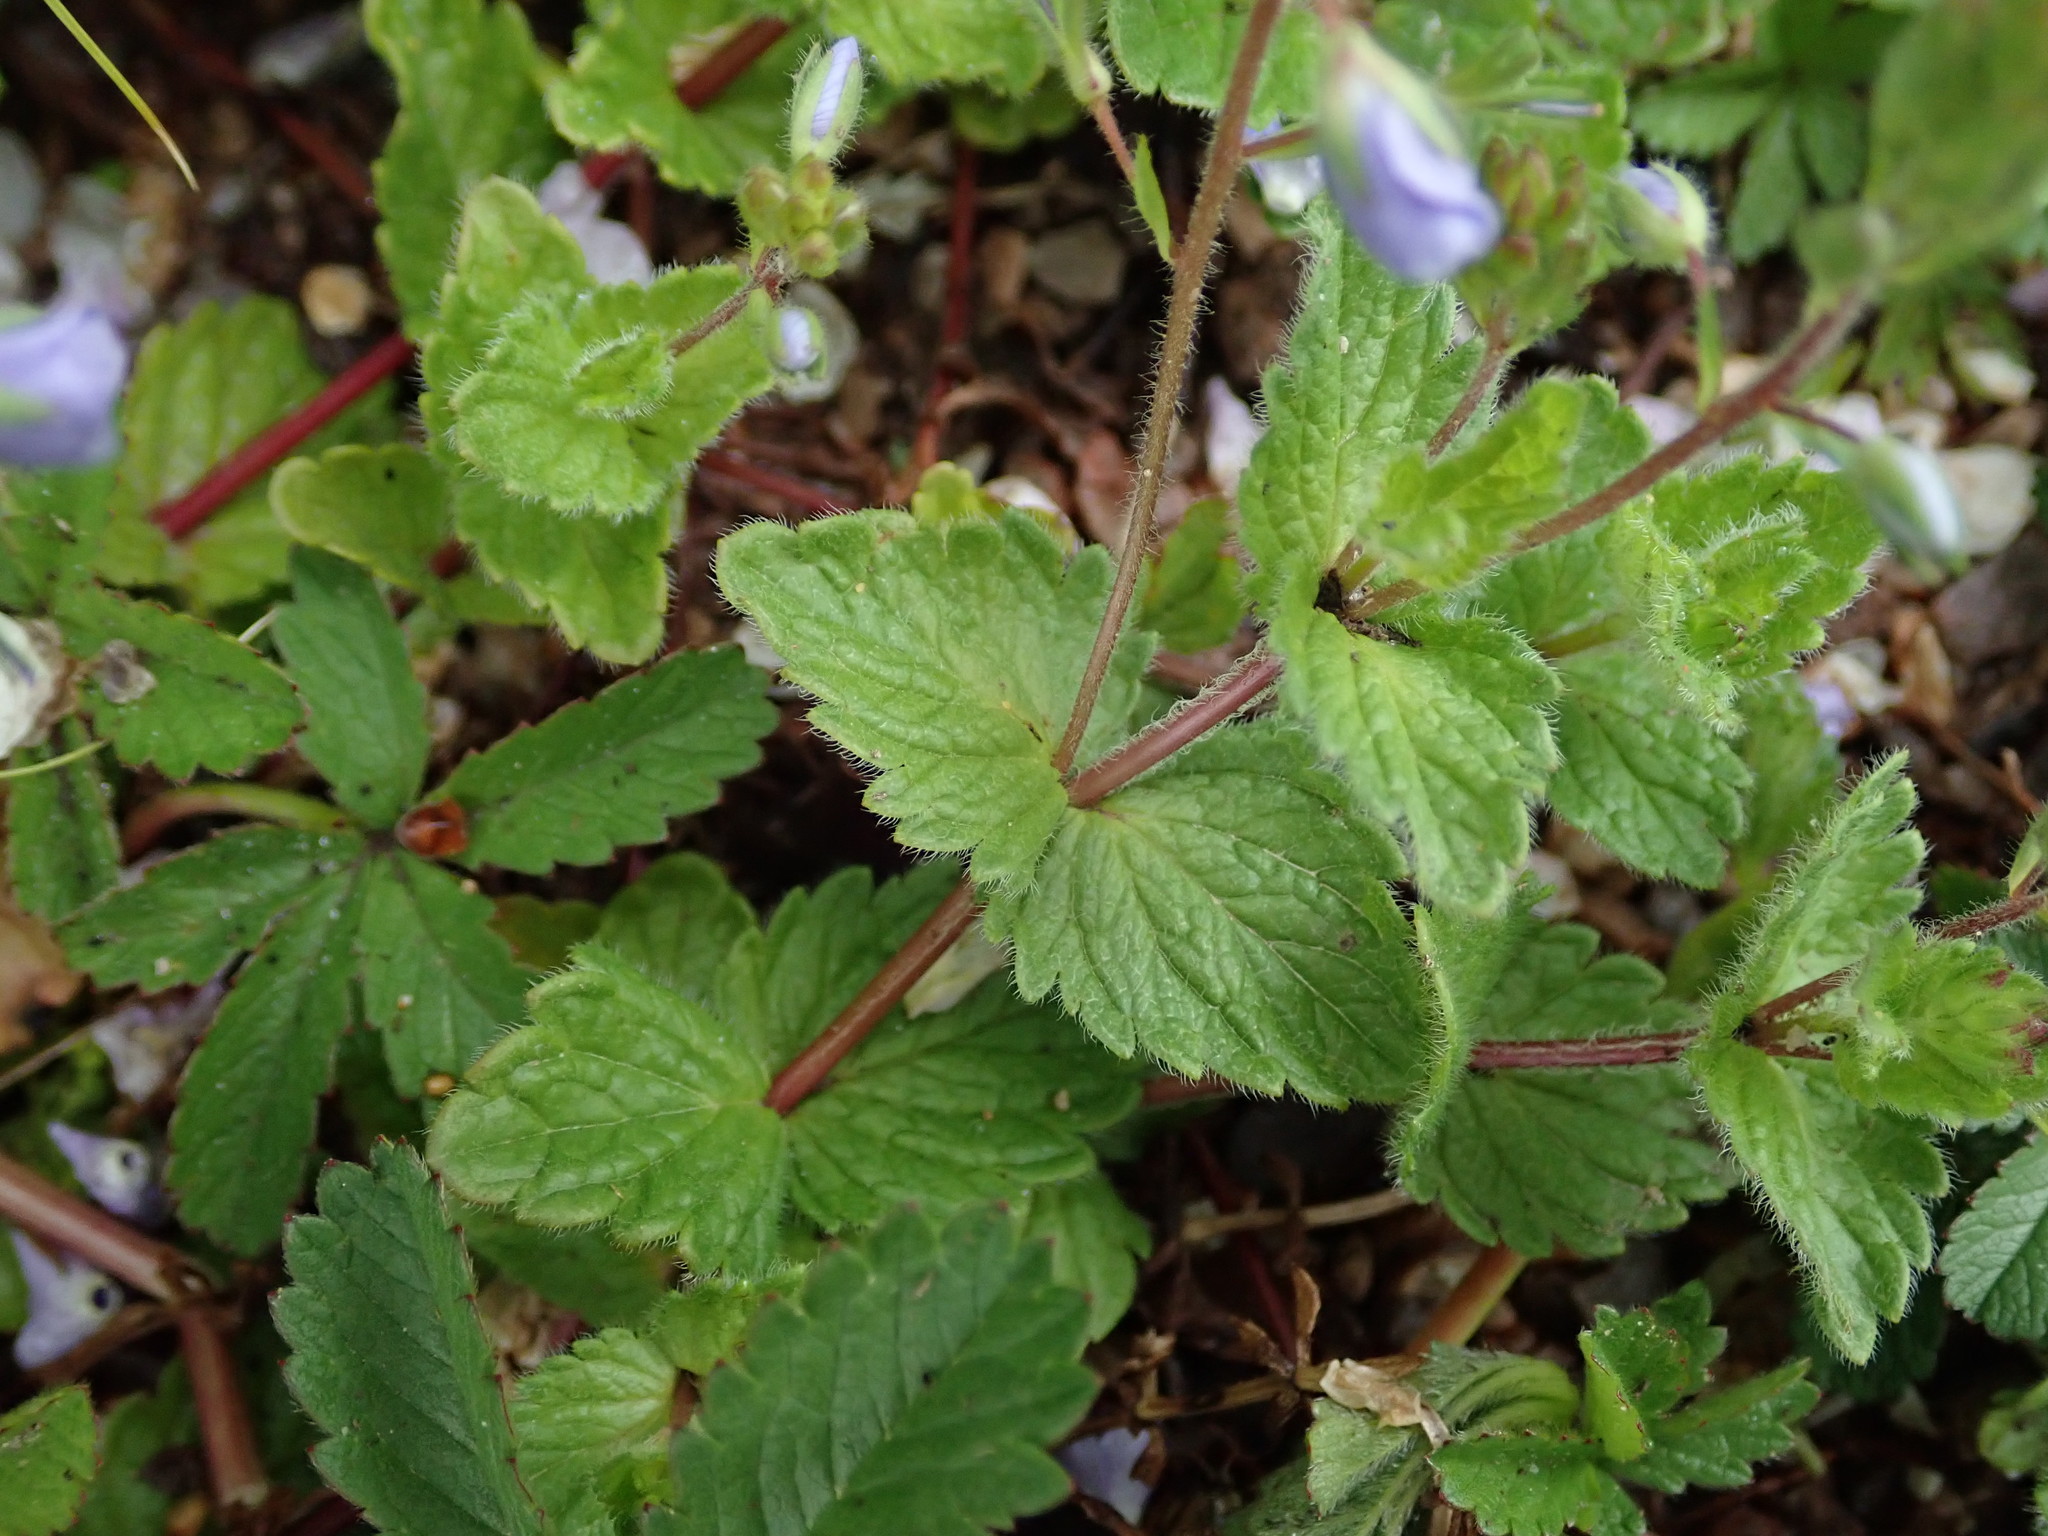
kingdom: Plantae
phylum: Tracheophyta
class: Magnoliopsida
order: Lamiales
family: Plantaginaceae
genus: Veronica
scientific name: Veronica chamaedrys
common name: Germander speedwell
